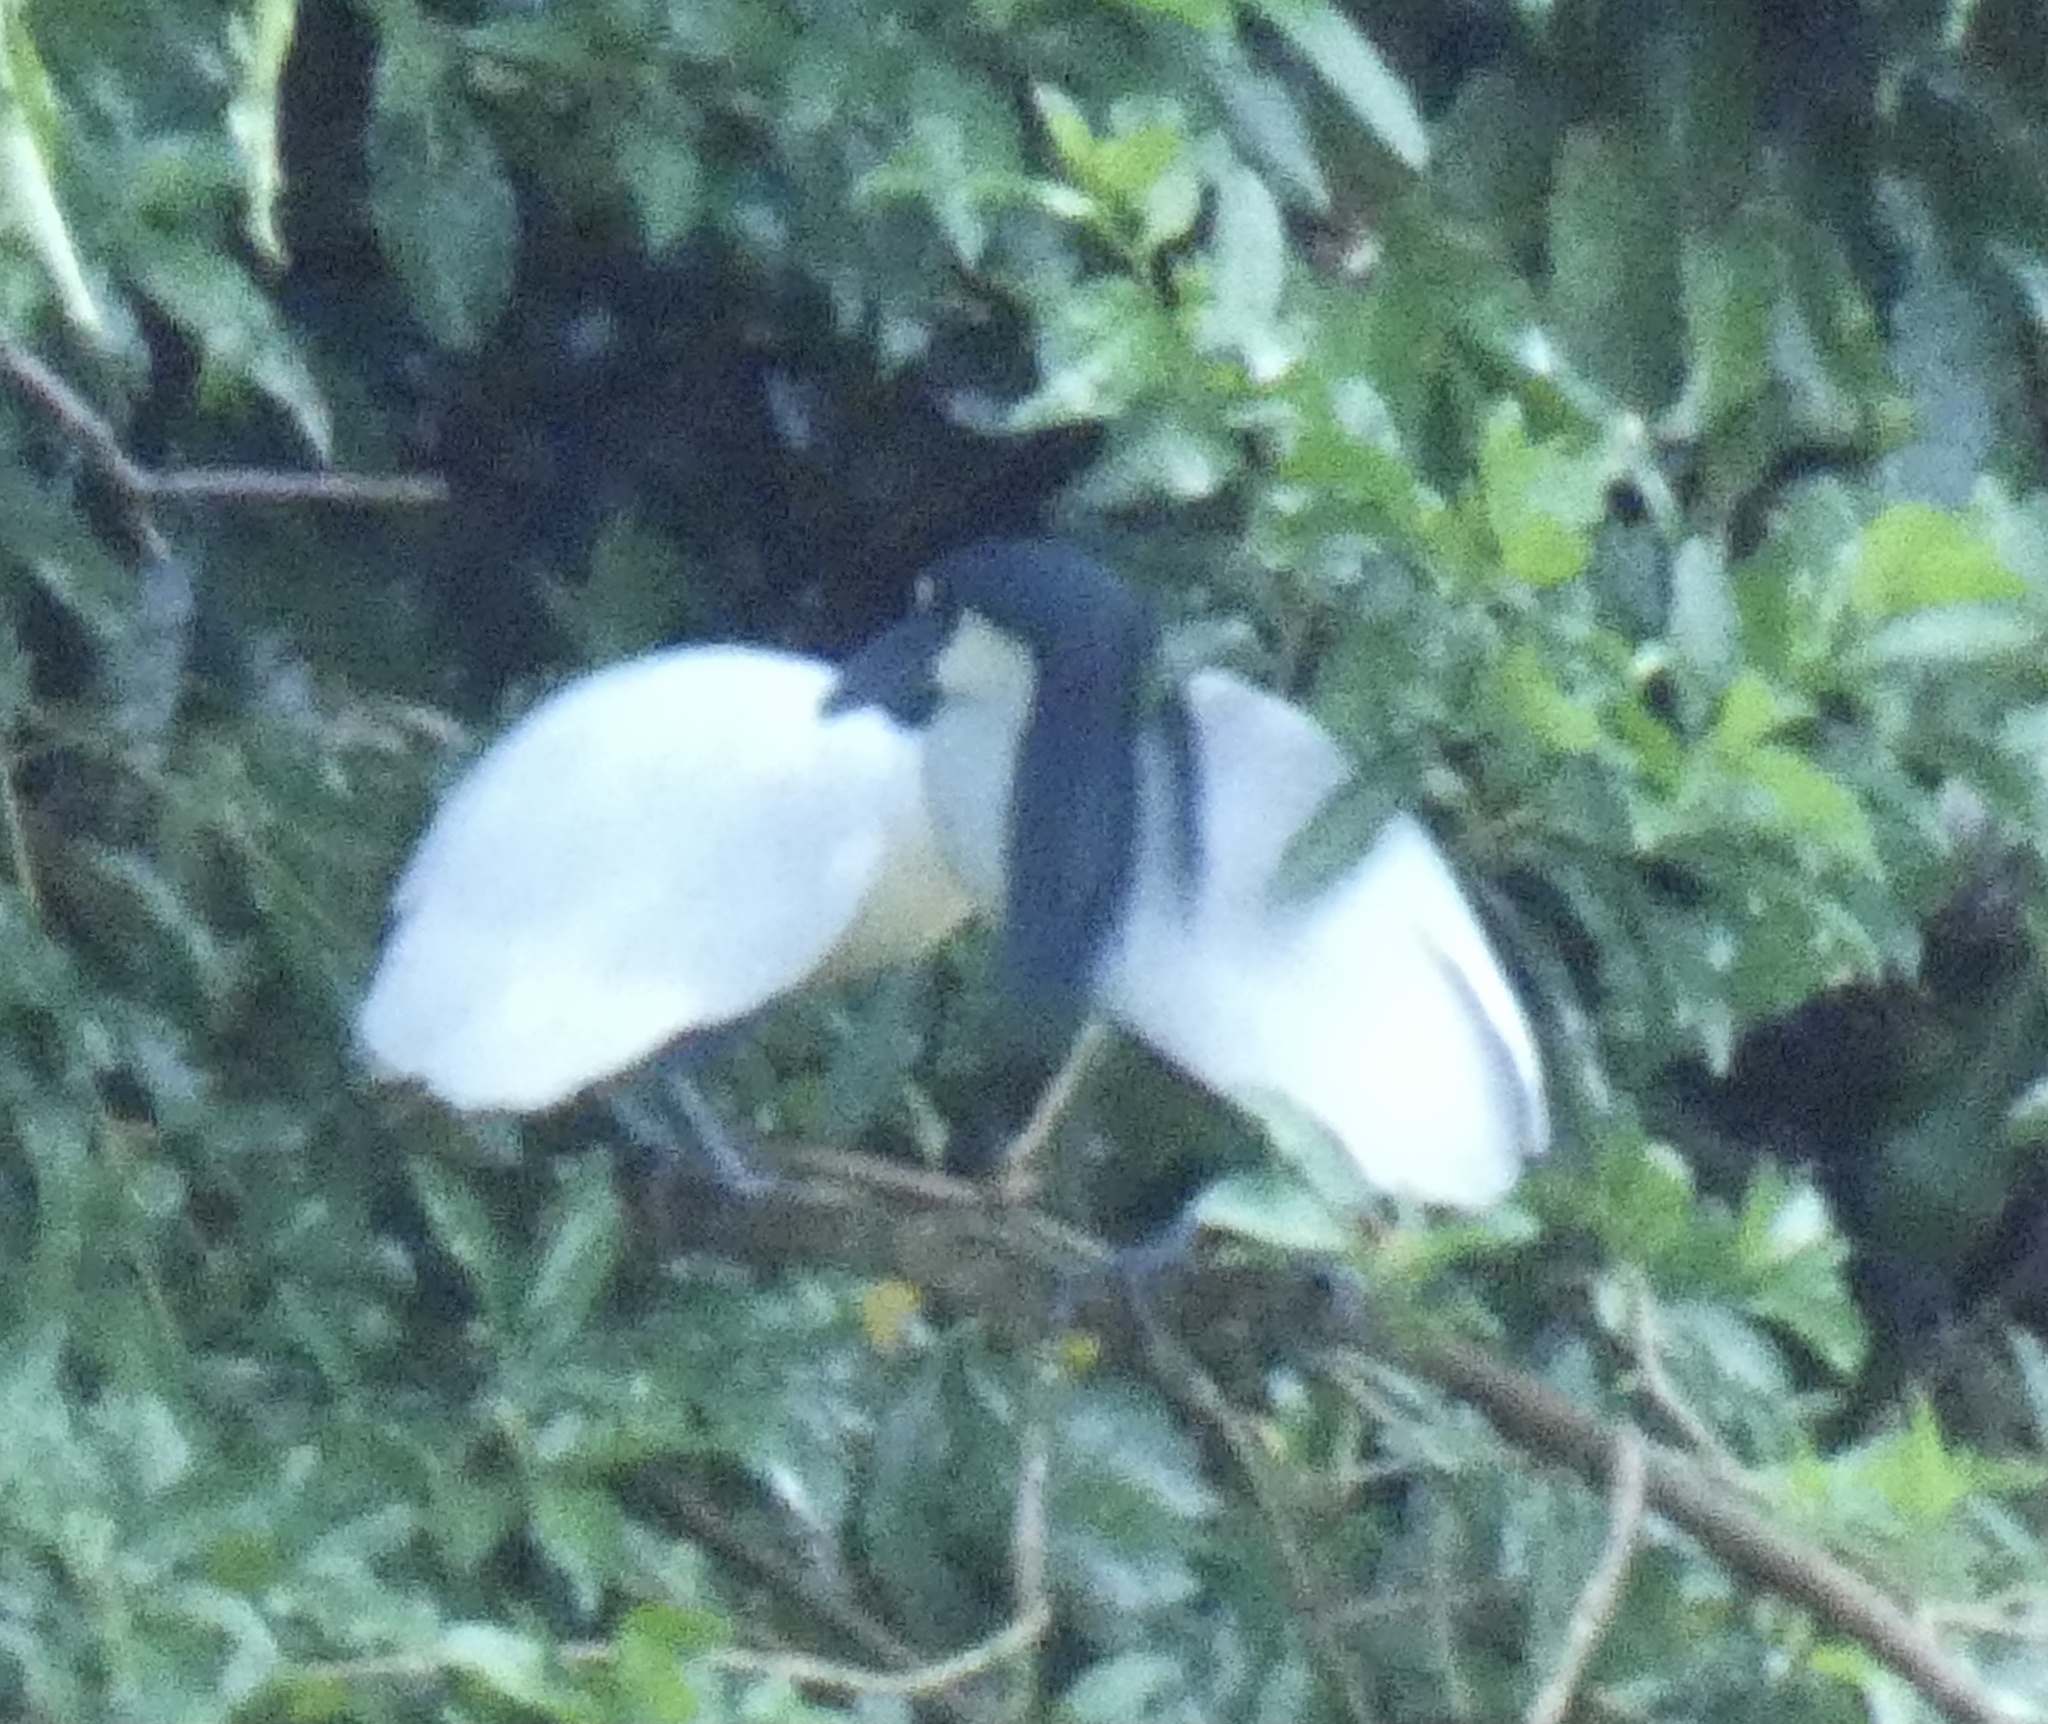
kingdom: Animalia
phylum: Chordata
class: Aves
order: Pelecaniformes
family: Ardeidae
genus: Cochlearius
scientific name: Cochlearius cochlearius
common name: Boat-billed heron
